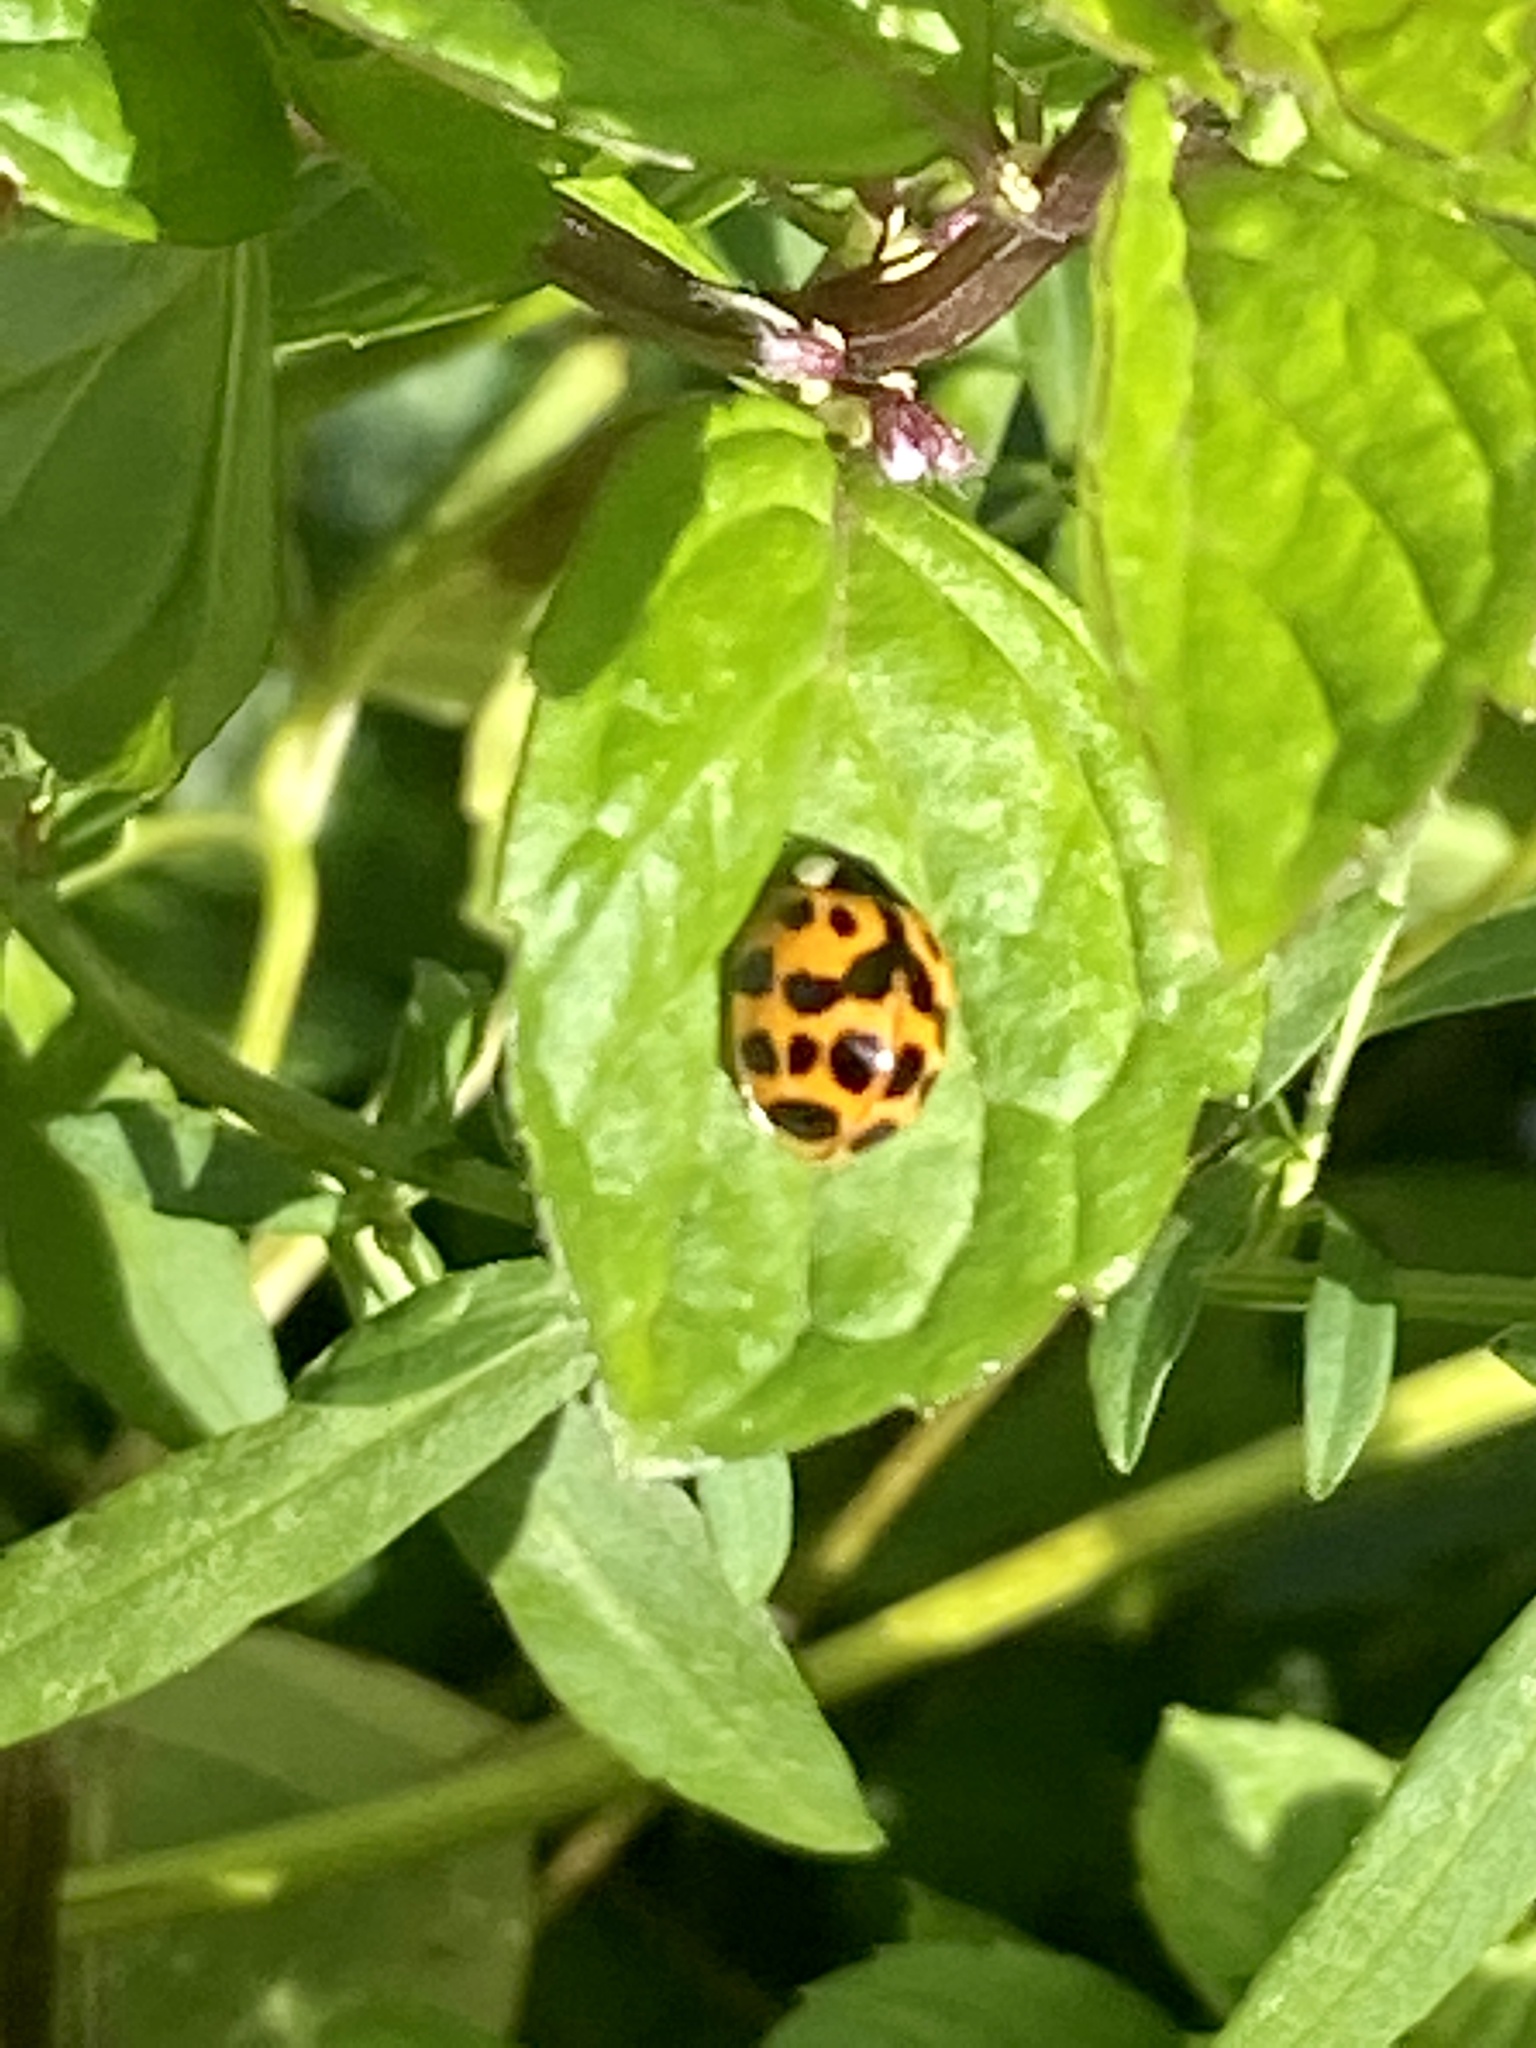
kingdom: Animalia
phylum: Arthropoda
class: Insecta
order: Coleoptera
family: Coccinellidae
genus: Harmonia
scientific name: Harmonia axyridis
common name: Harlequin ladybird
